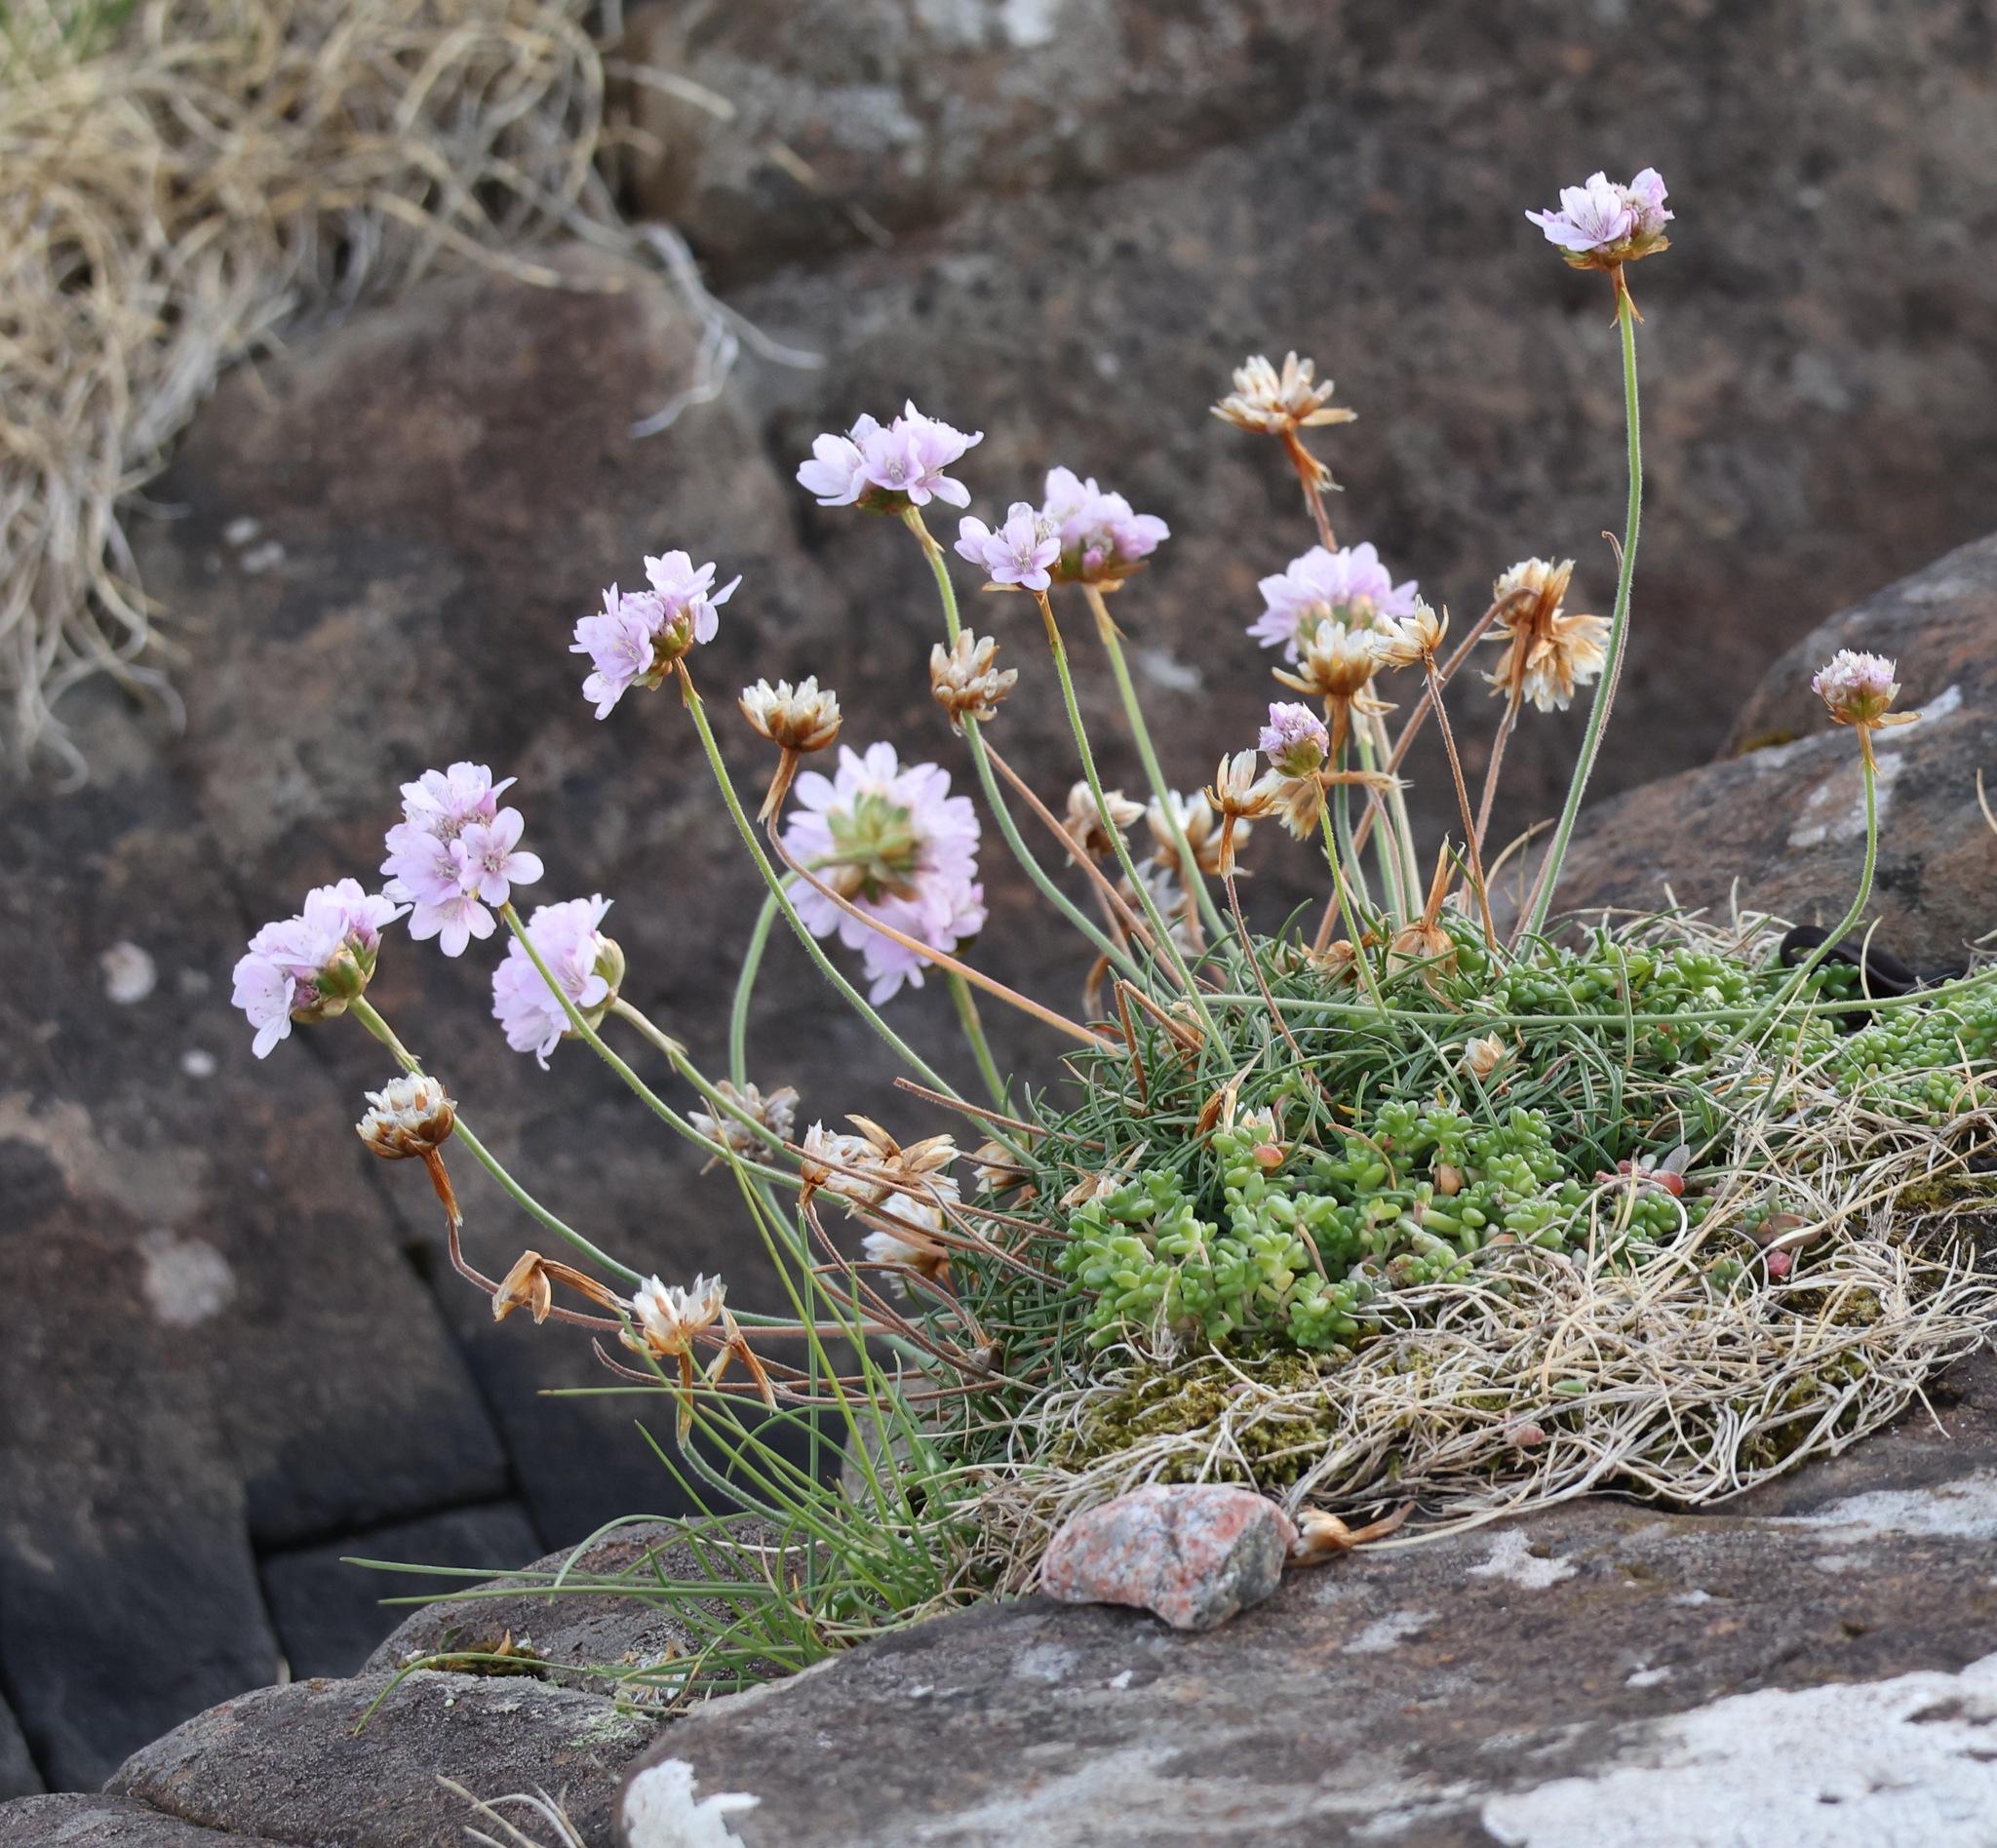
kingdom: Plantae
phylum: Tracheophyta
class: Magnoliopsida
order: Caryophyllales
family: Plumbaginaceae
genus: Armeria
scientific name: Armeria maritima
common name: Thrift
